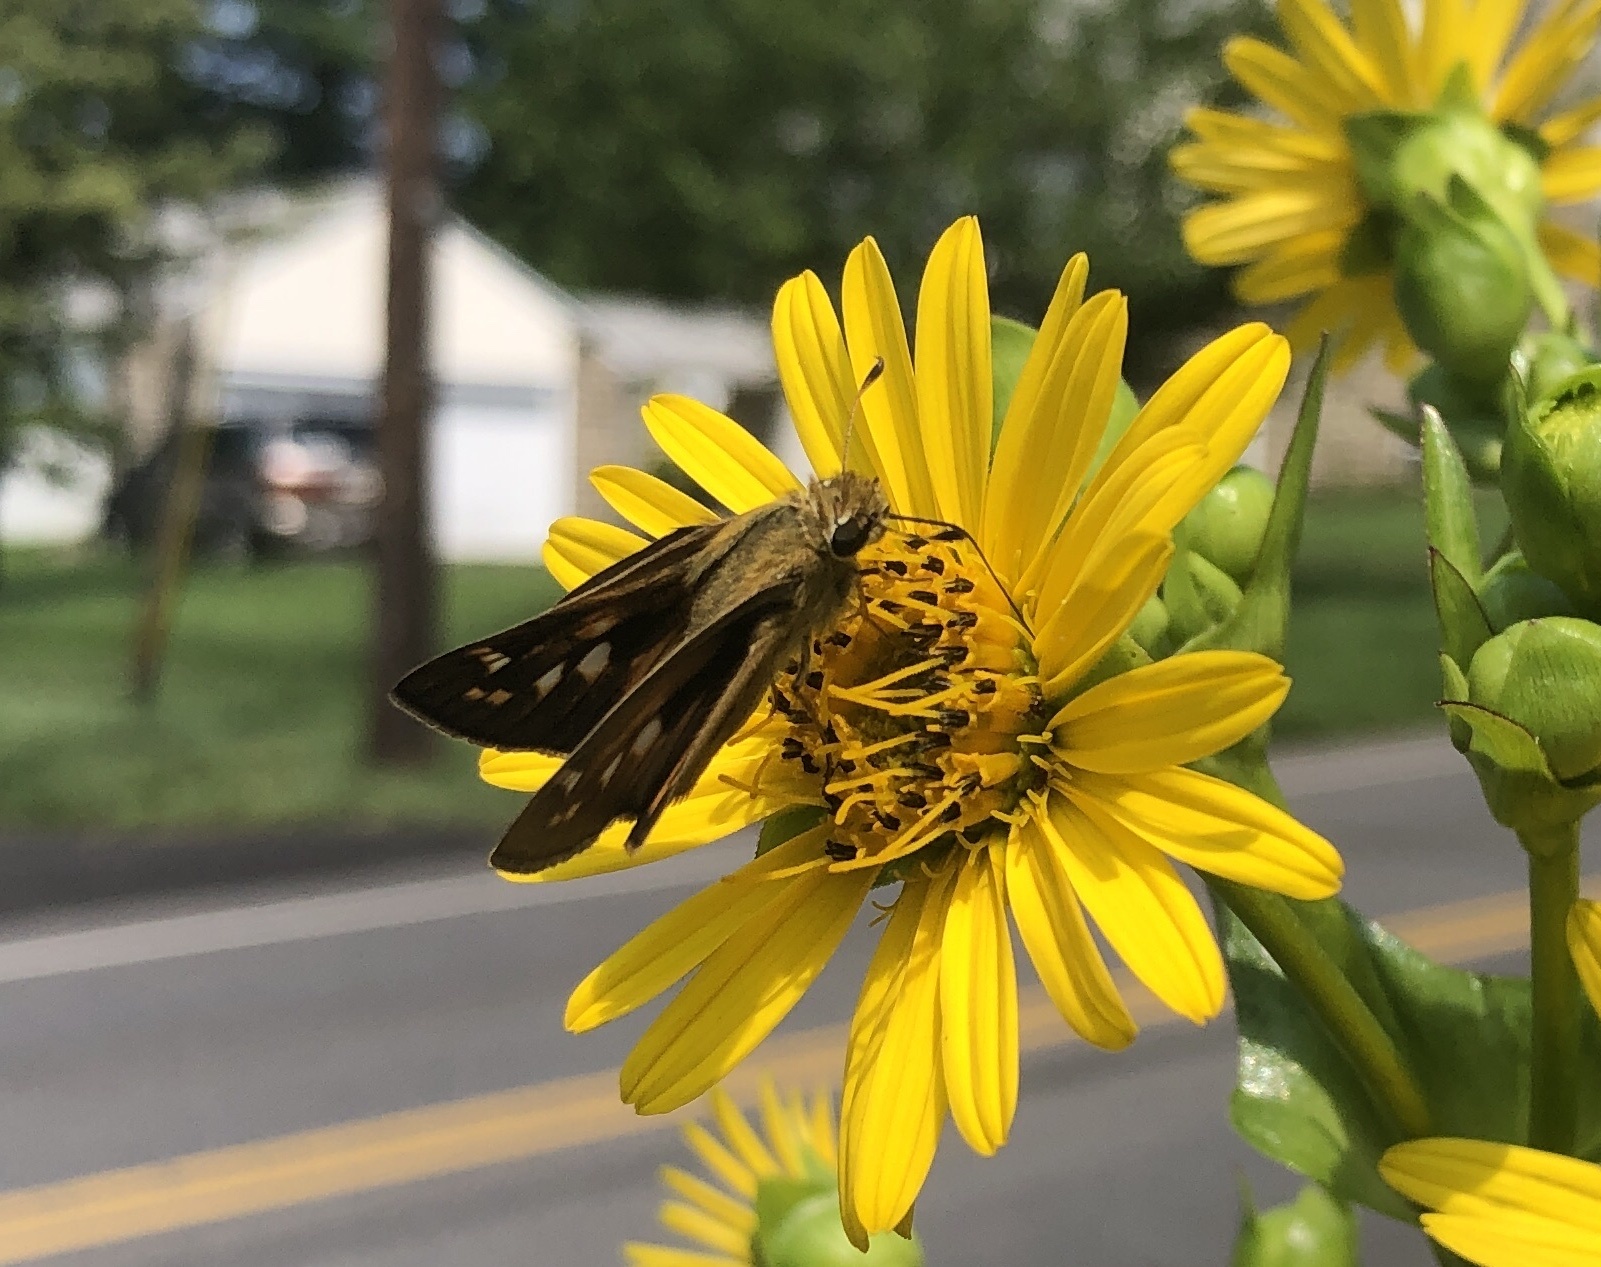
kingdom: Animalia
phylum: Arthropoda
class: Insecta
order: Lepidoptera
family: Hesperiidae
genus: Atalopedes
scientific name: Atalopedes
